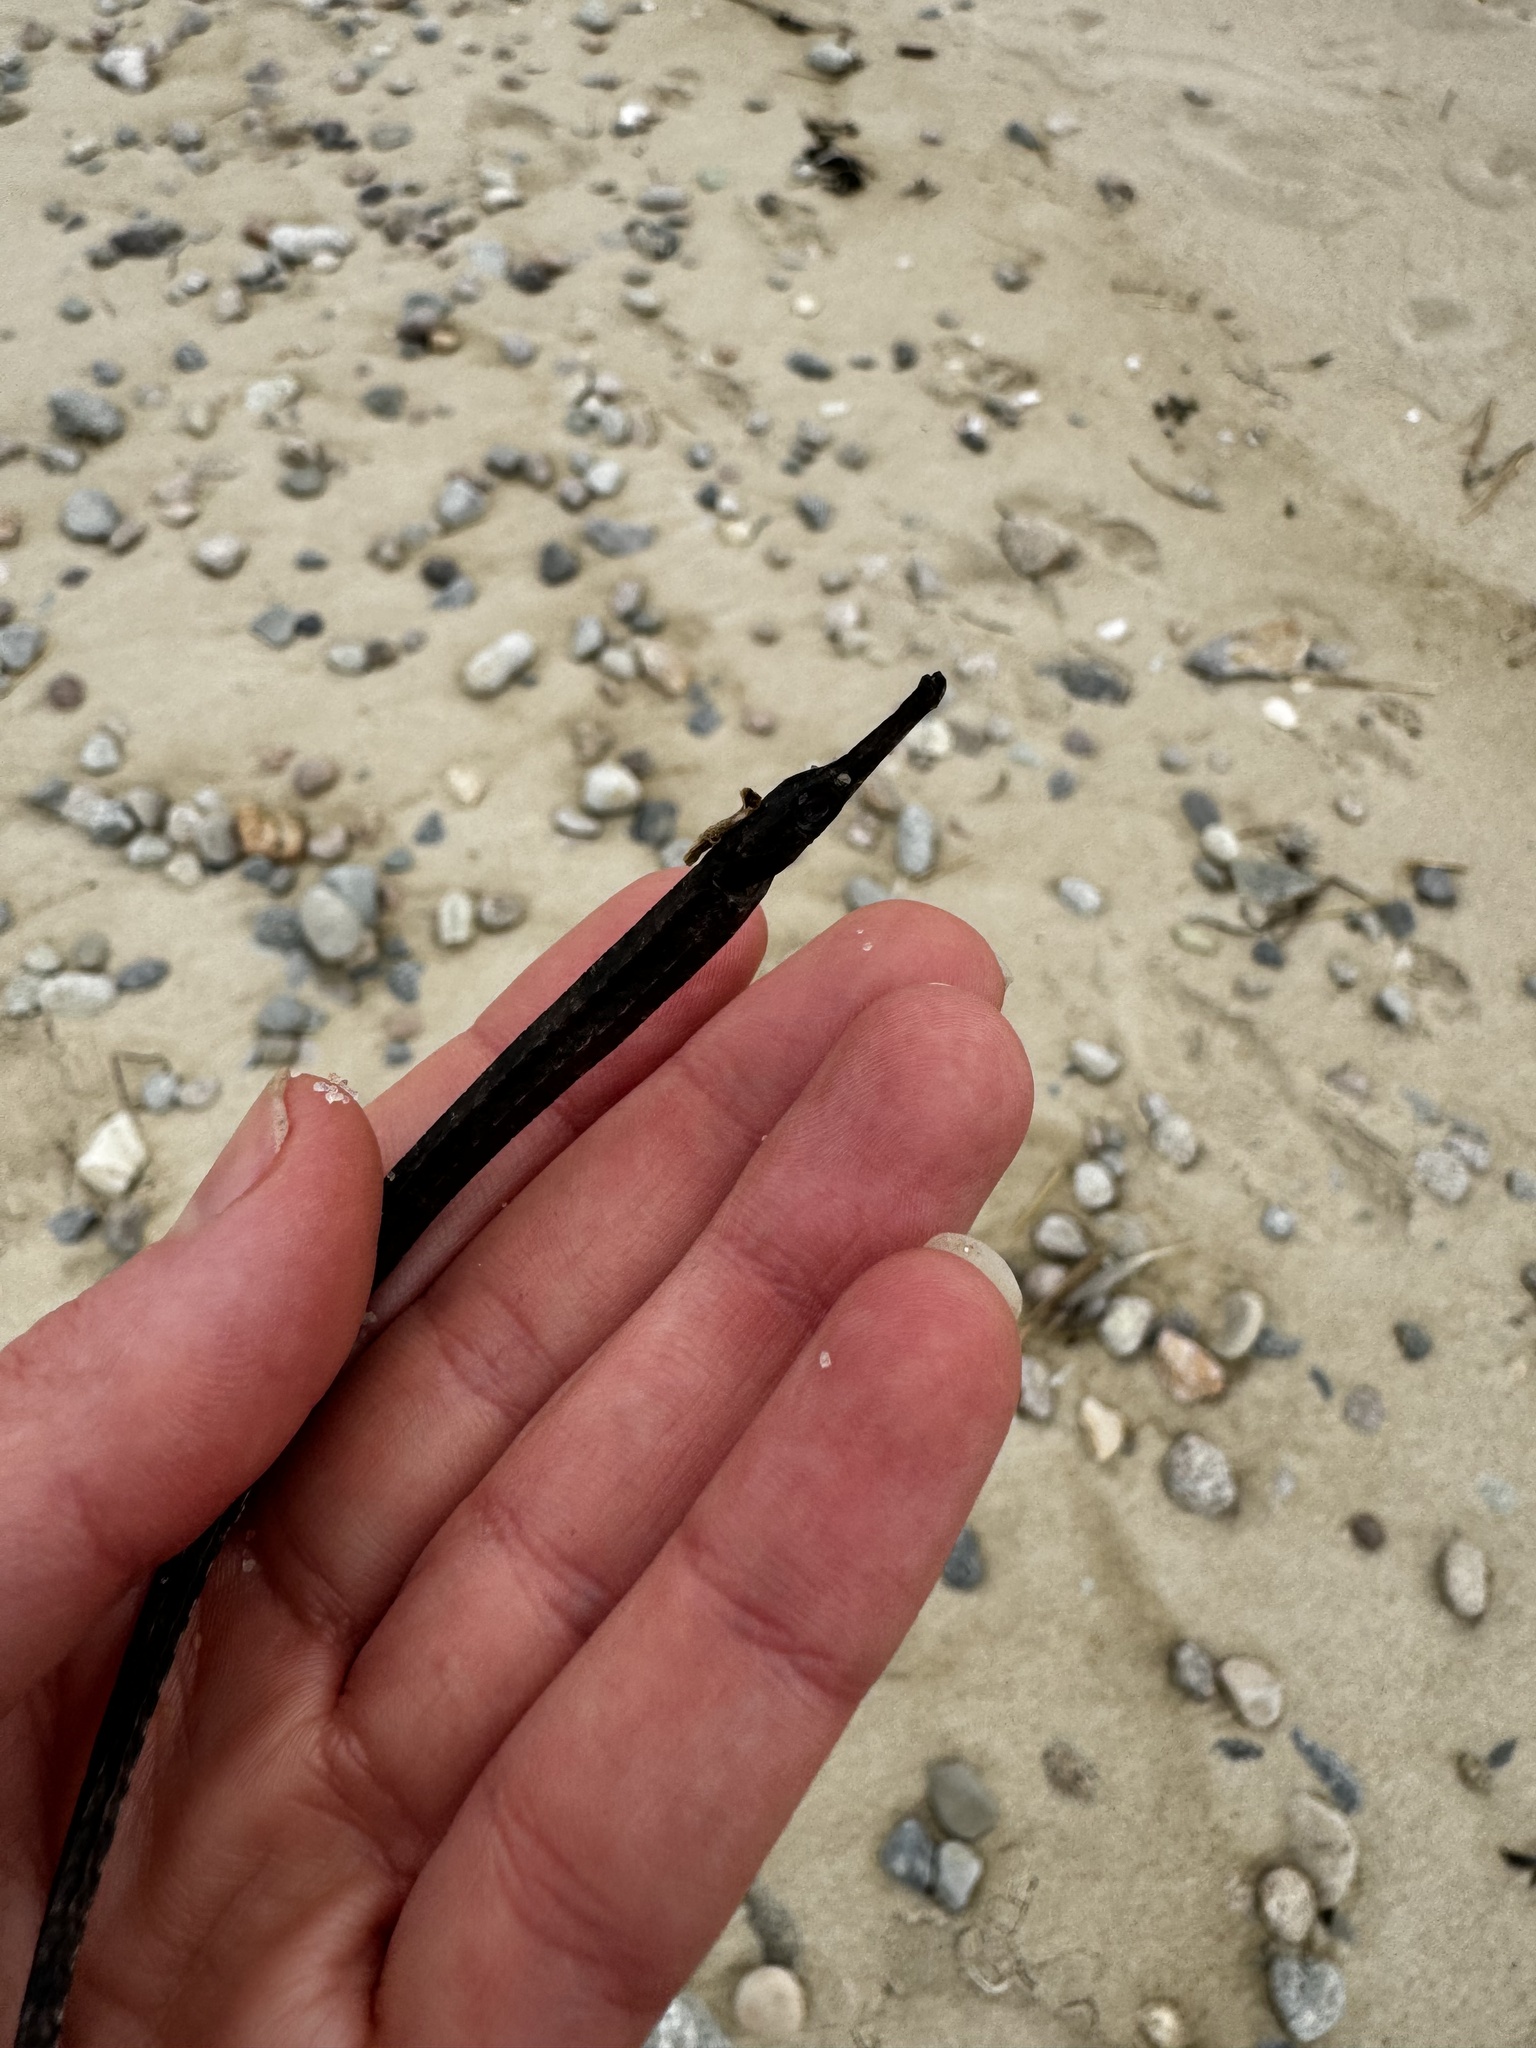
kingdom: Animalia
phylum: Chordata
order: Syngnathiformes
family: Syngnathidae
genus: Syngnathus
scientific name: Syngnathus fuscus
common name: Northern pipefish
